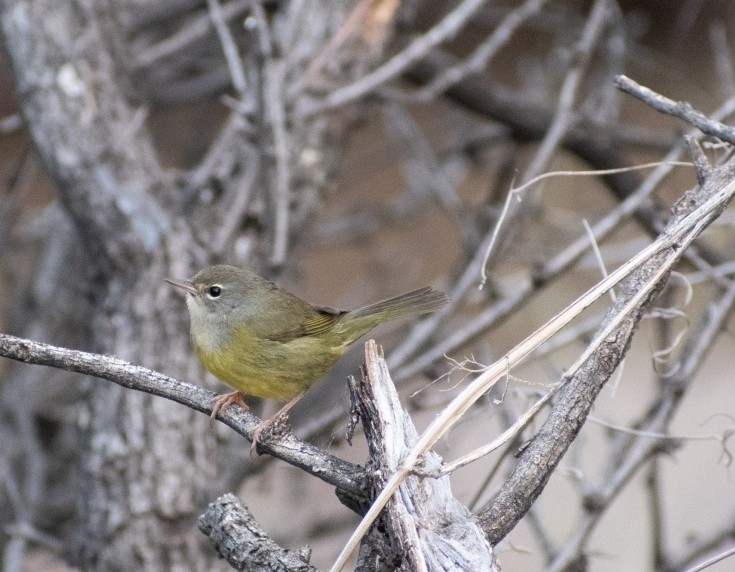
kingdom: Animalia
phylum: Chordata
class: Aves
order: Passeriformes
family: Parulidae
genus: Geothlypis
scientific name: Geothlypis tolmiei
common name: Macgillivray's warbler
